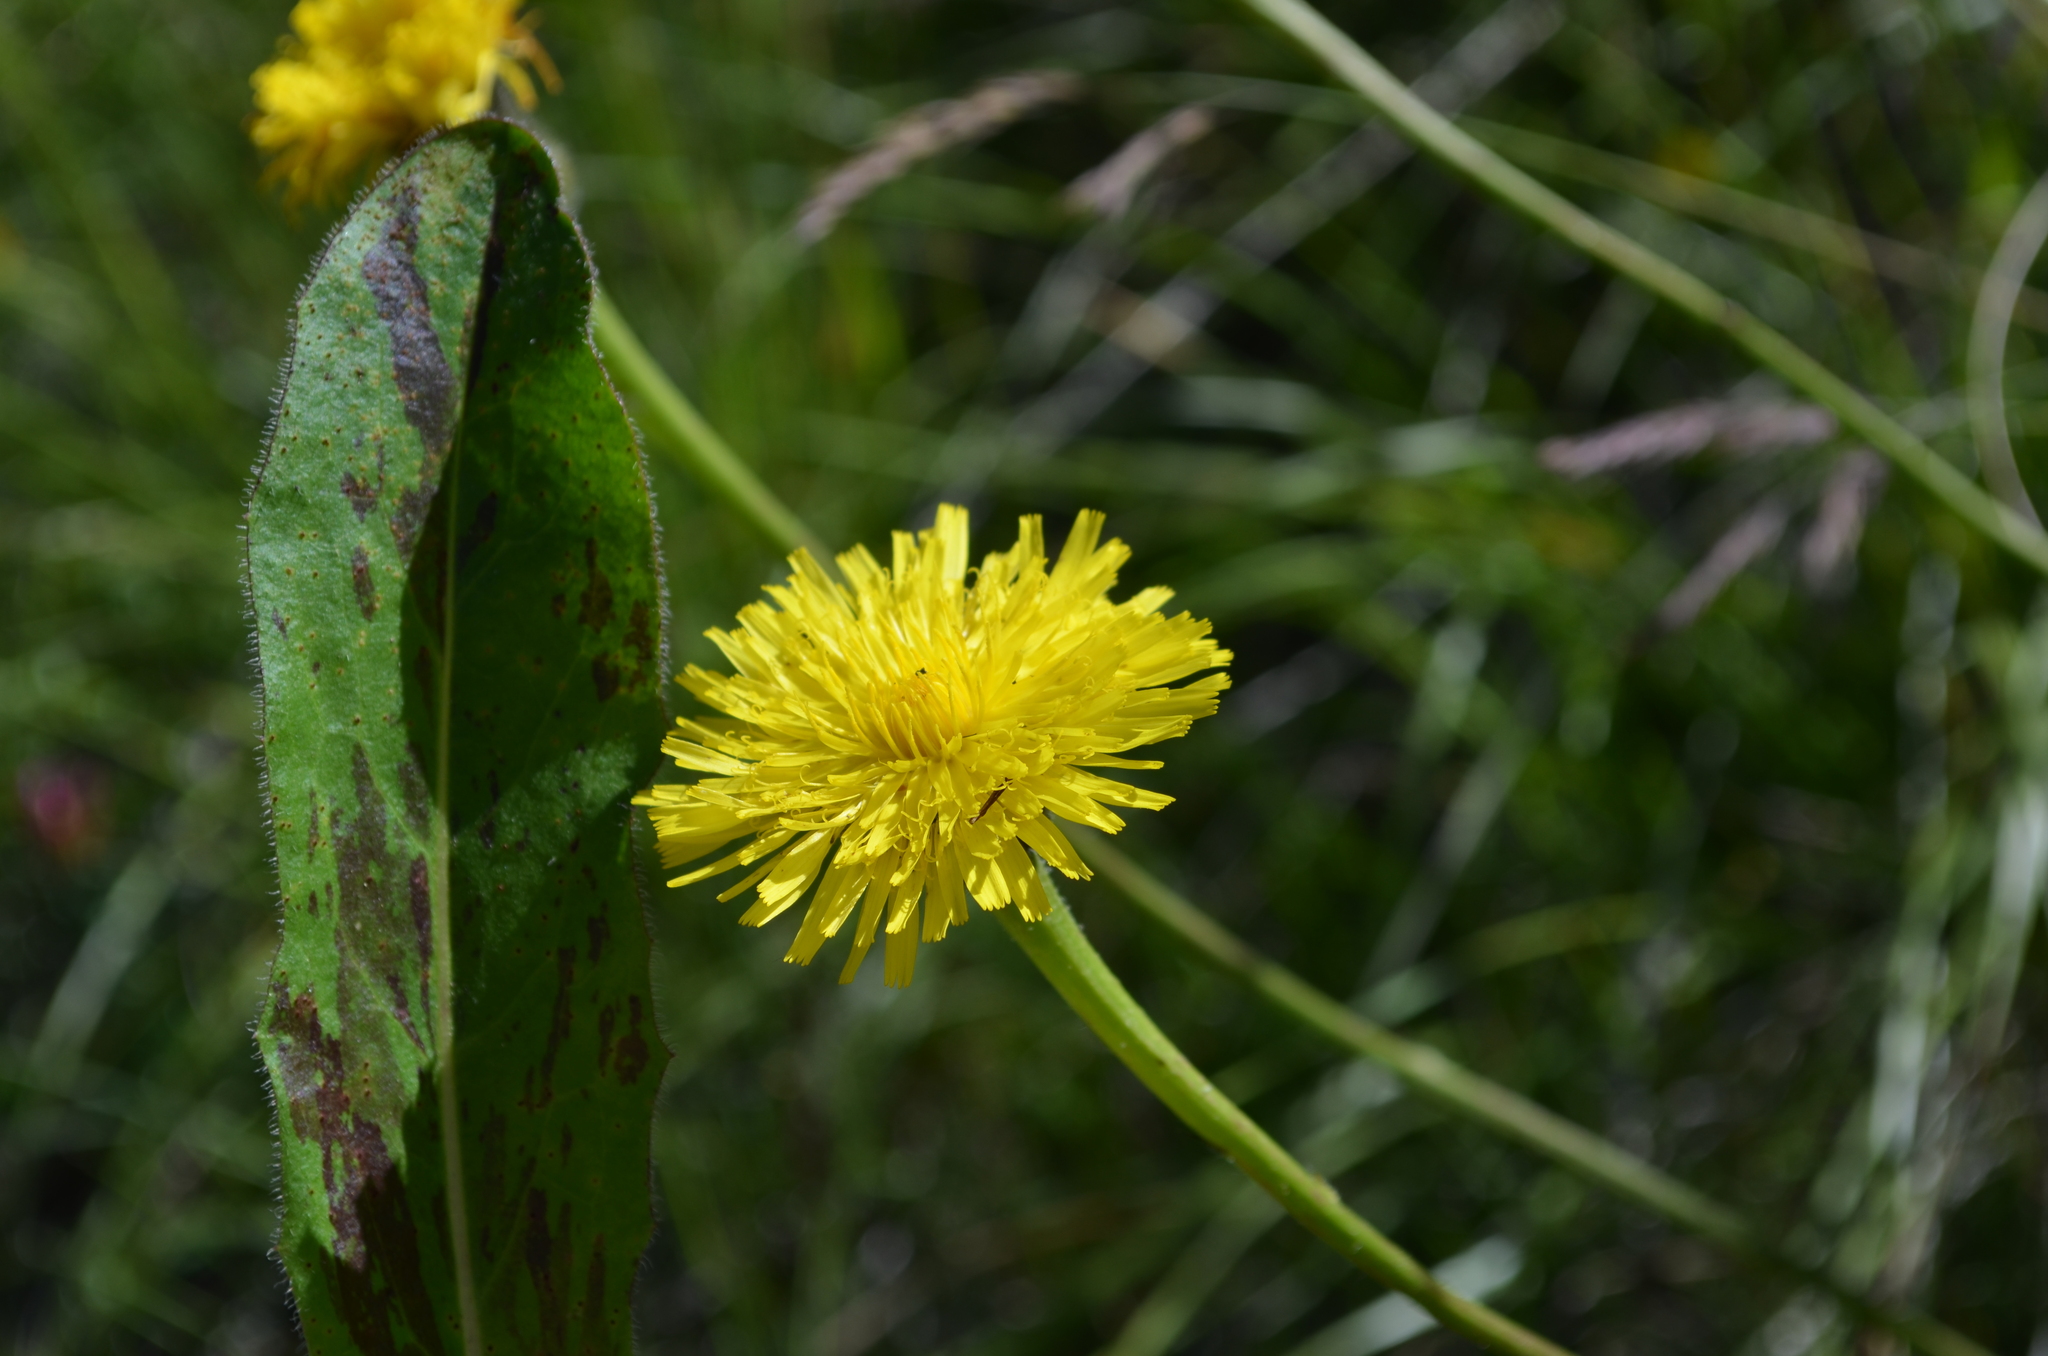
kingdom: Plantae
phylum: Tracheophyta
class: Magnoliopsida
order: Asterales
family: Asteraceae
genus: Trommsdorffia
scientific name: Trommsdorffia maculata
